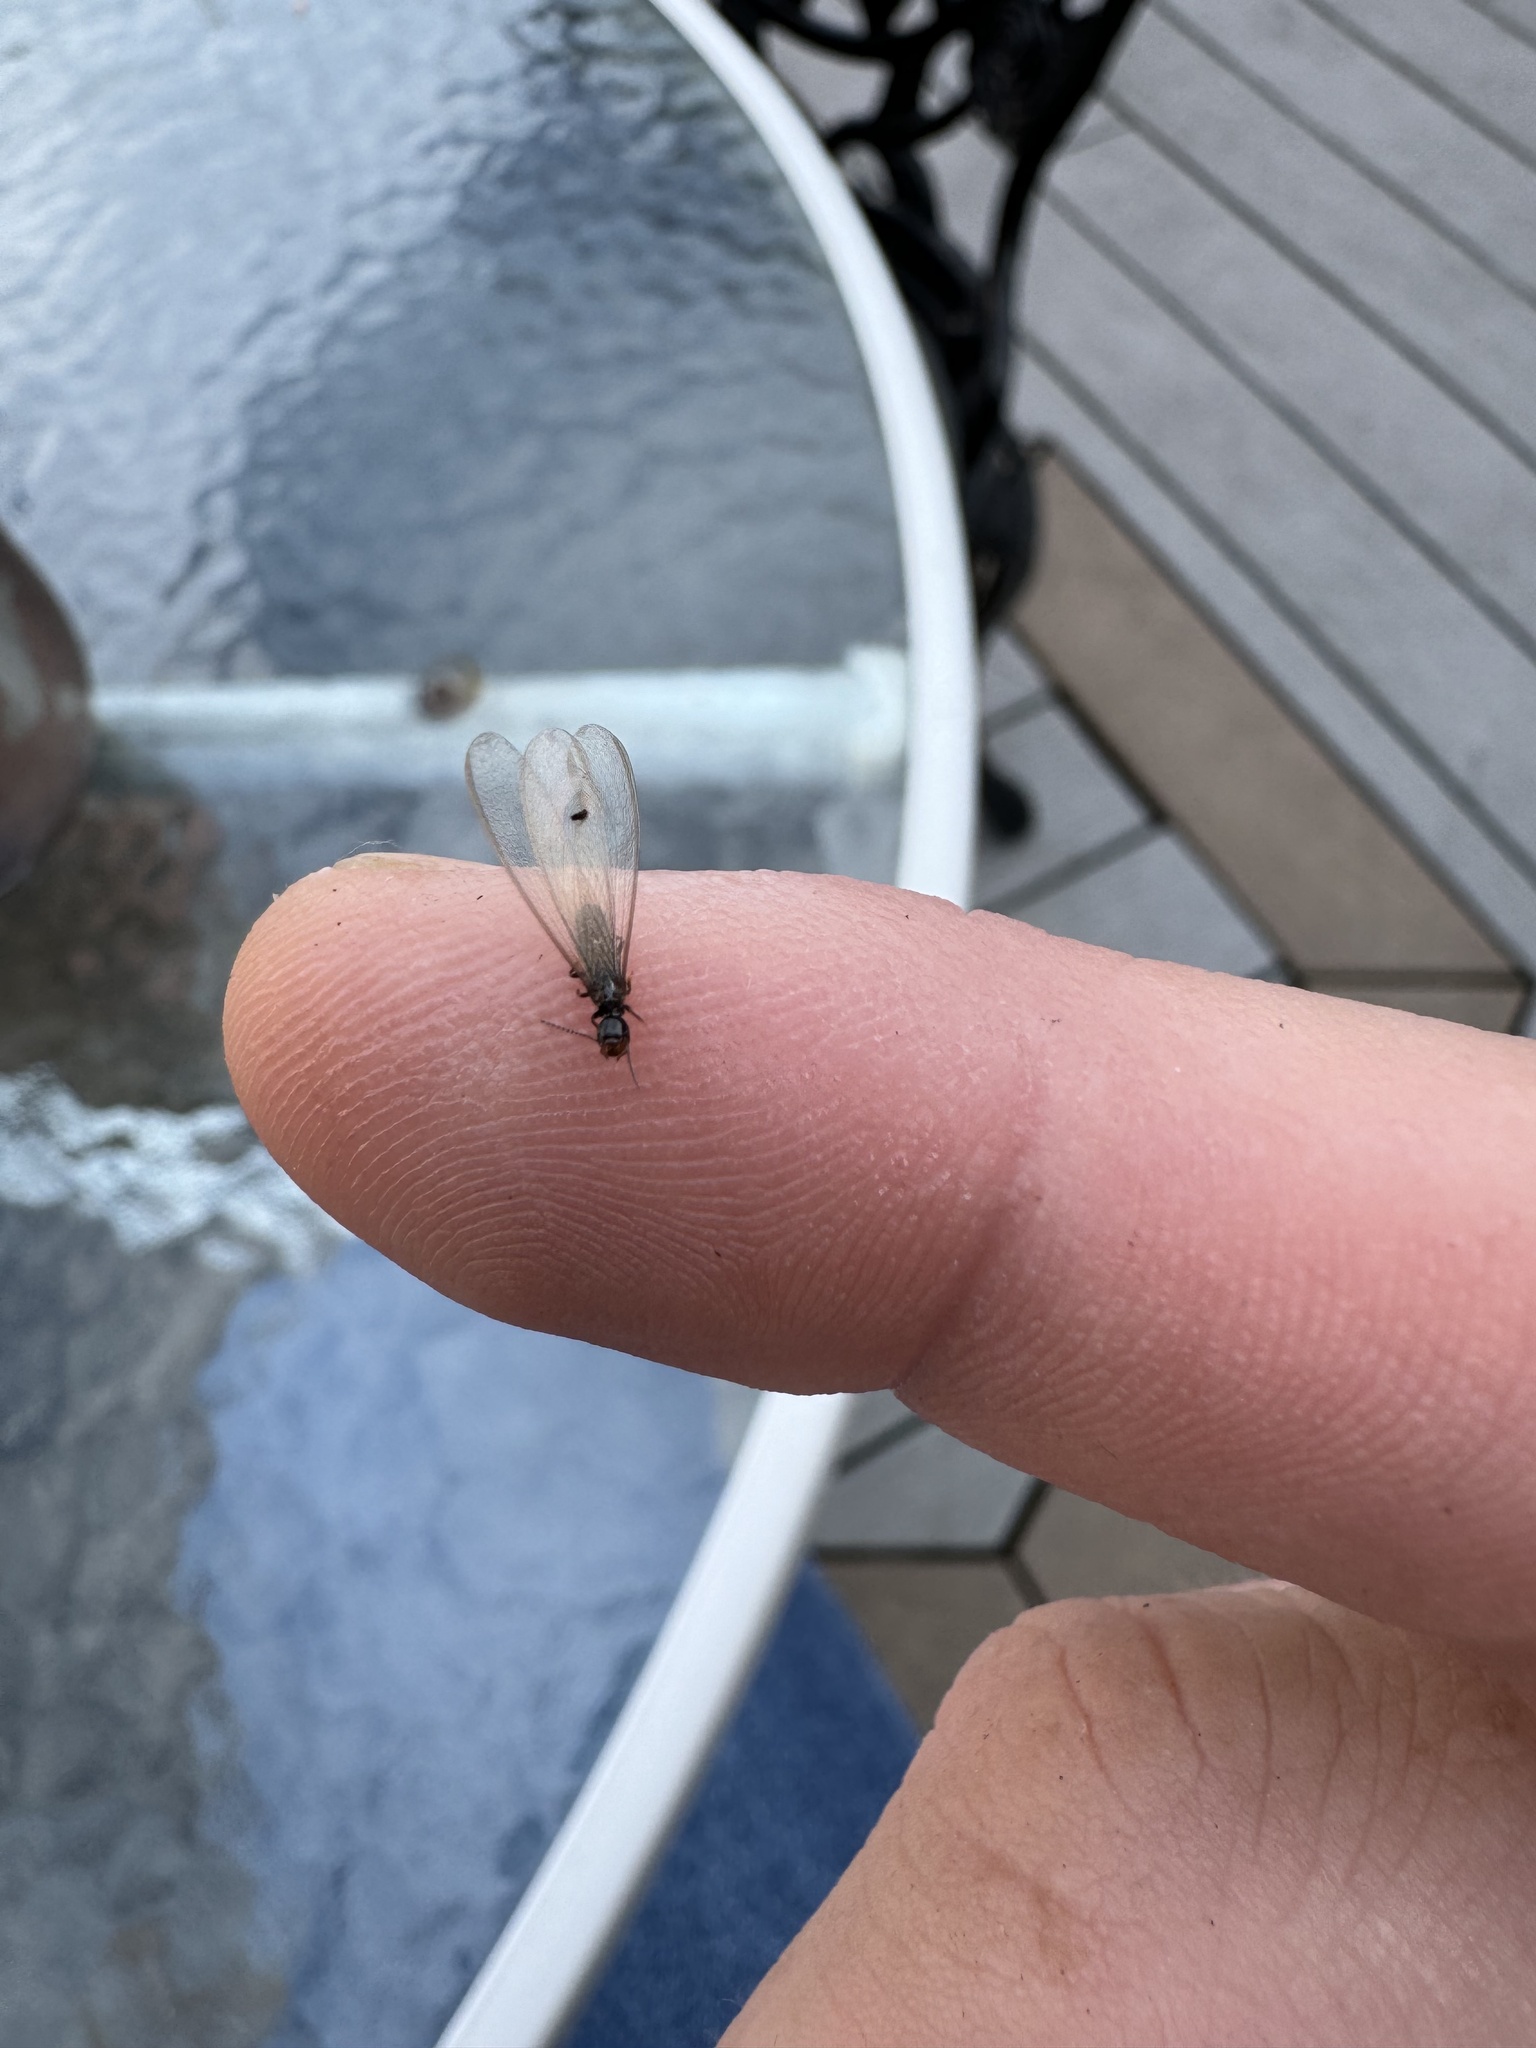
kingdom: Animalia
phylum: Arthropoda
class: Insecta
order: Blattodea
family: Rhinotermitidae
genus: Reticulitermes
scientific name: Reticulitermes hesperus
